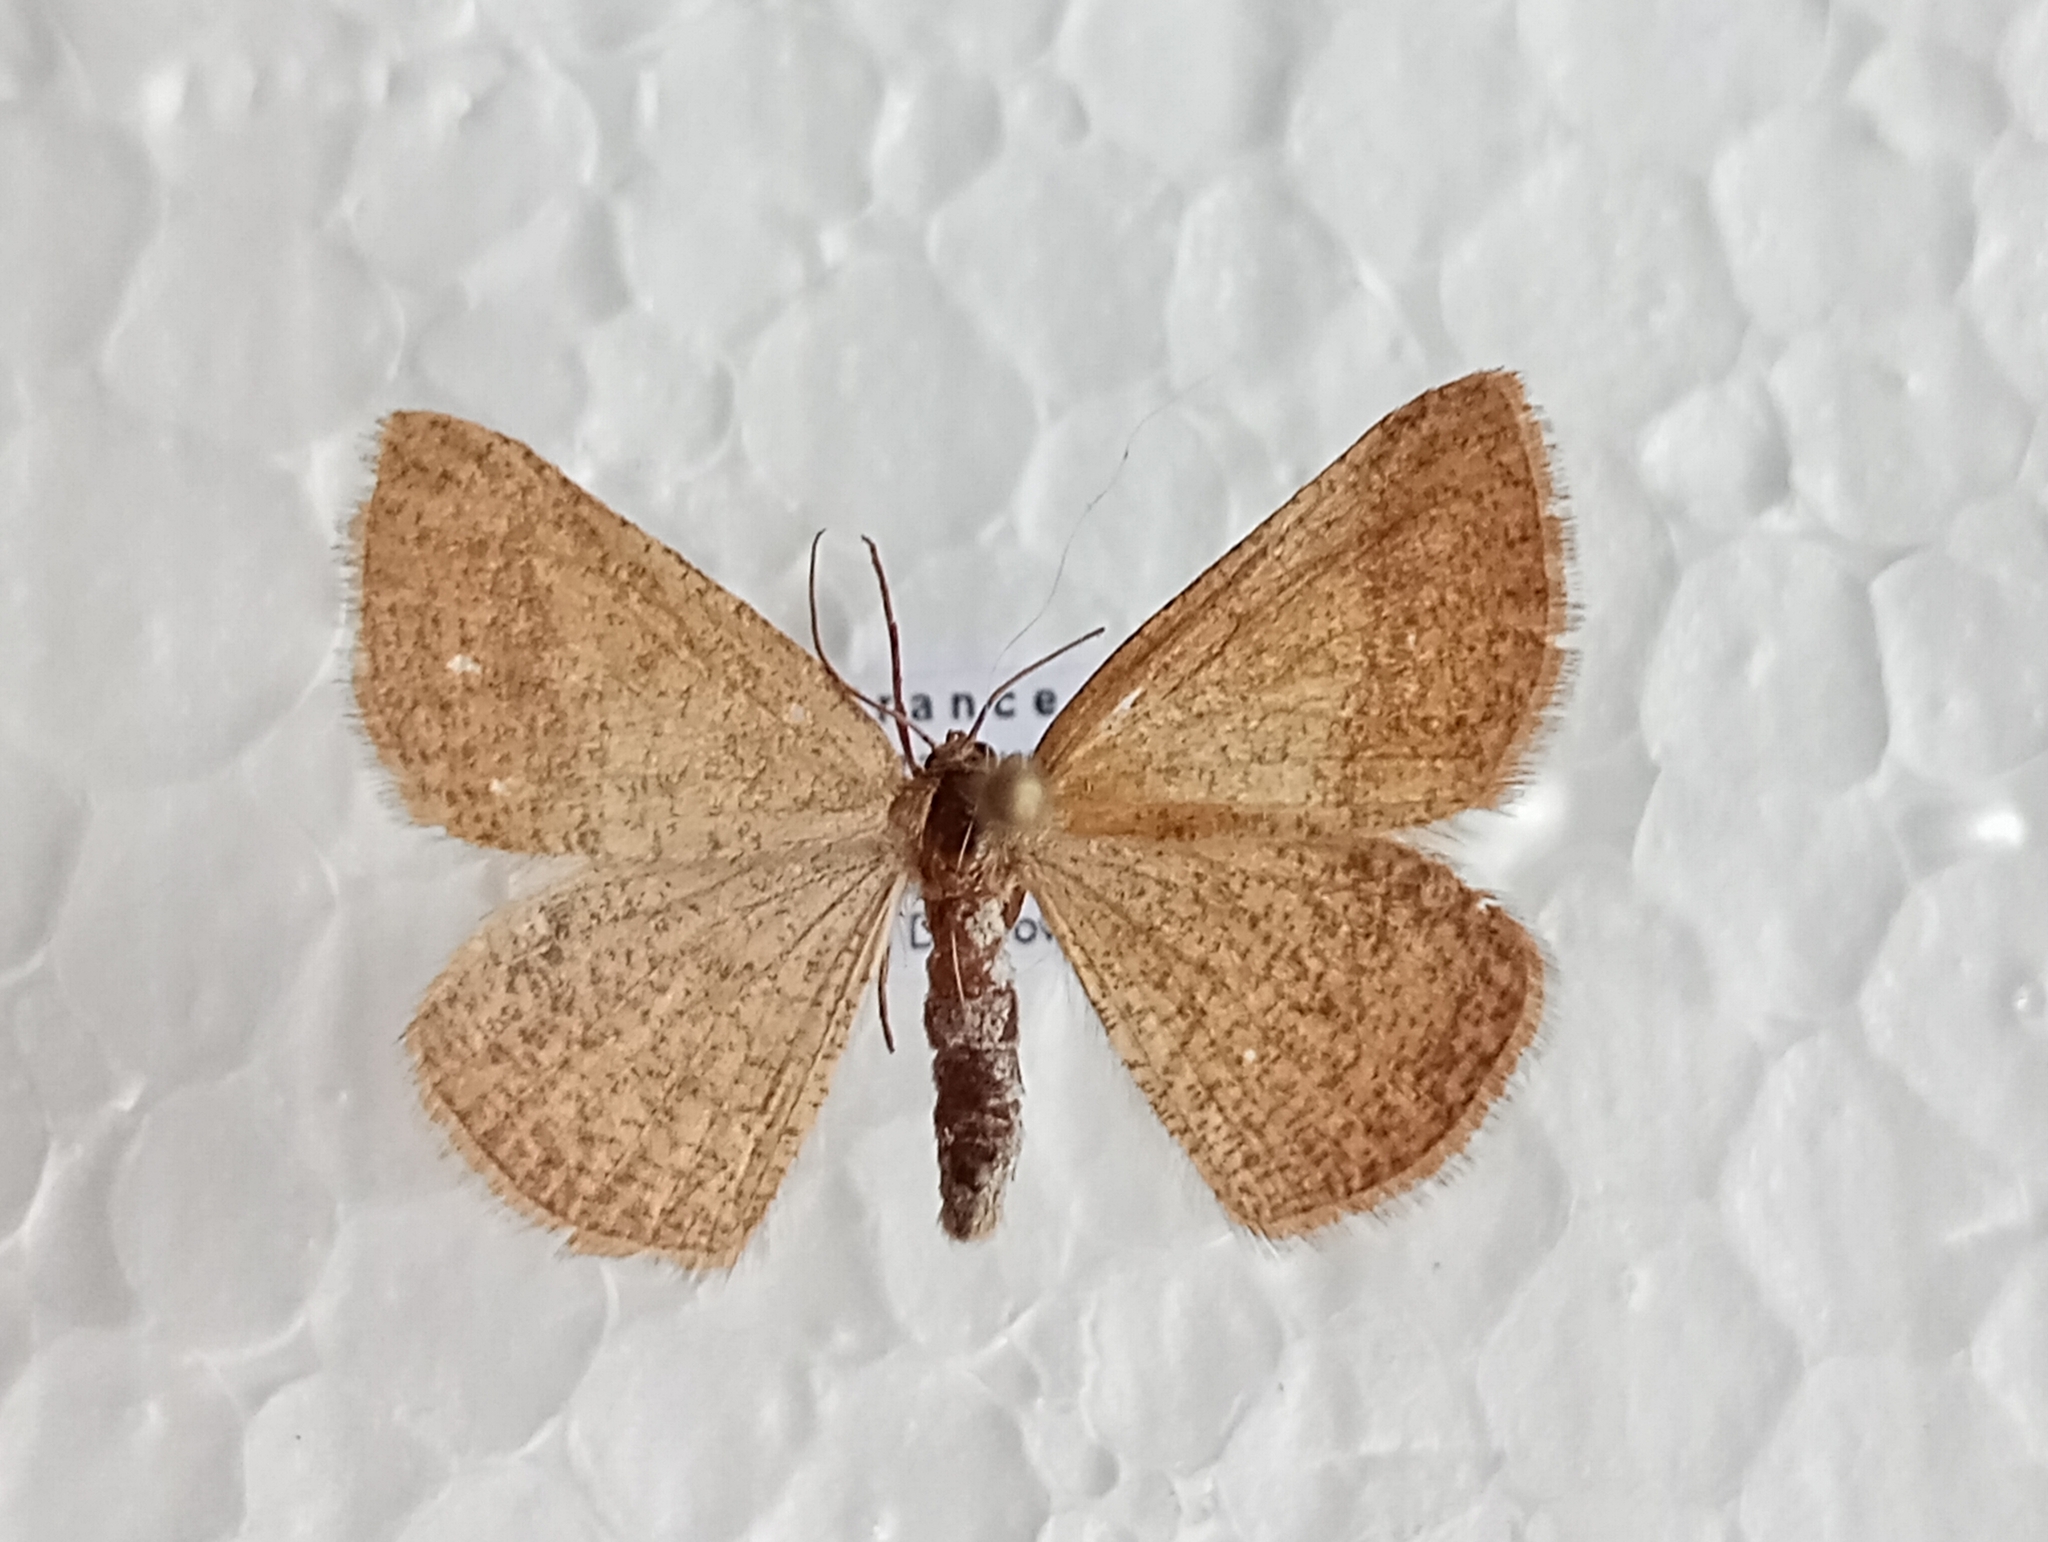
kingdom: Animalia
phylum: Arthropoda
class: Insecta
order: Lepidoptera
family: Geometridae
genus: Aplasta
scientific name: Aplasta ononaria
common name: Rest harrow
